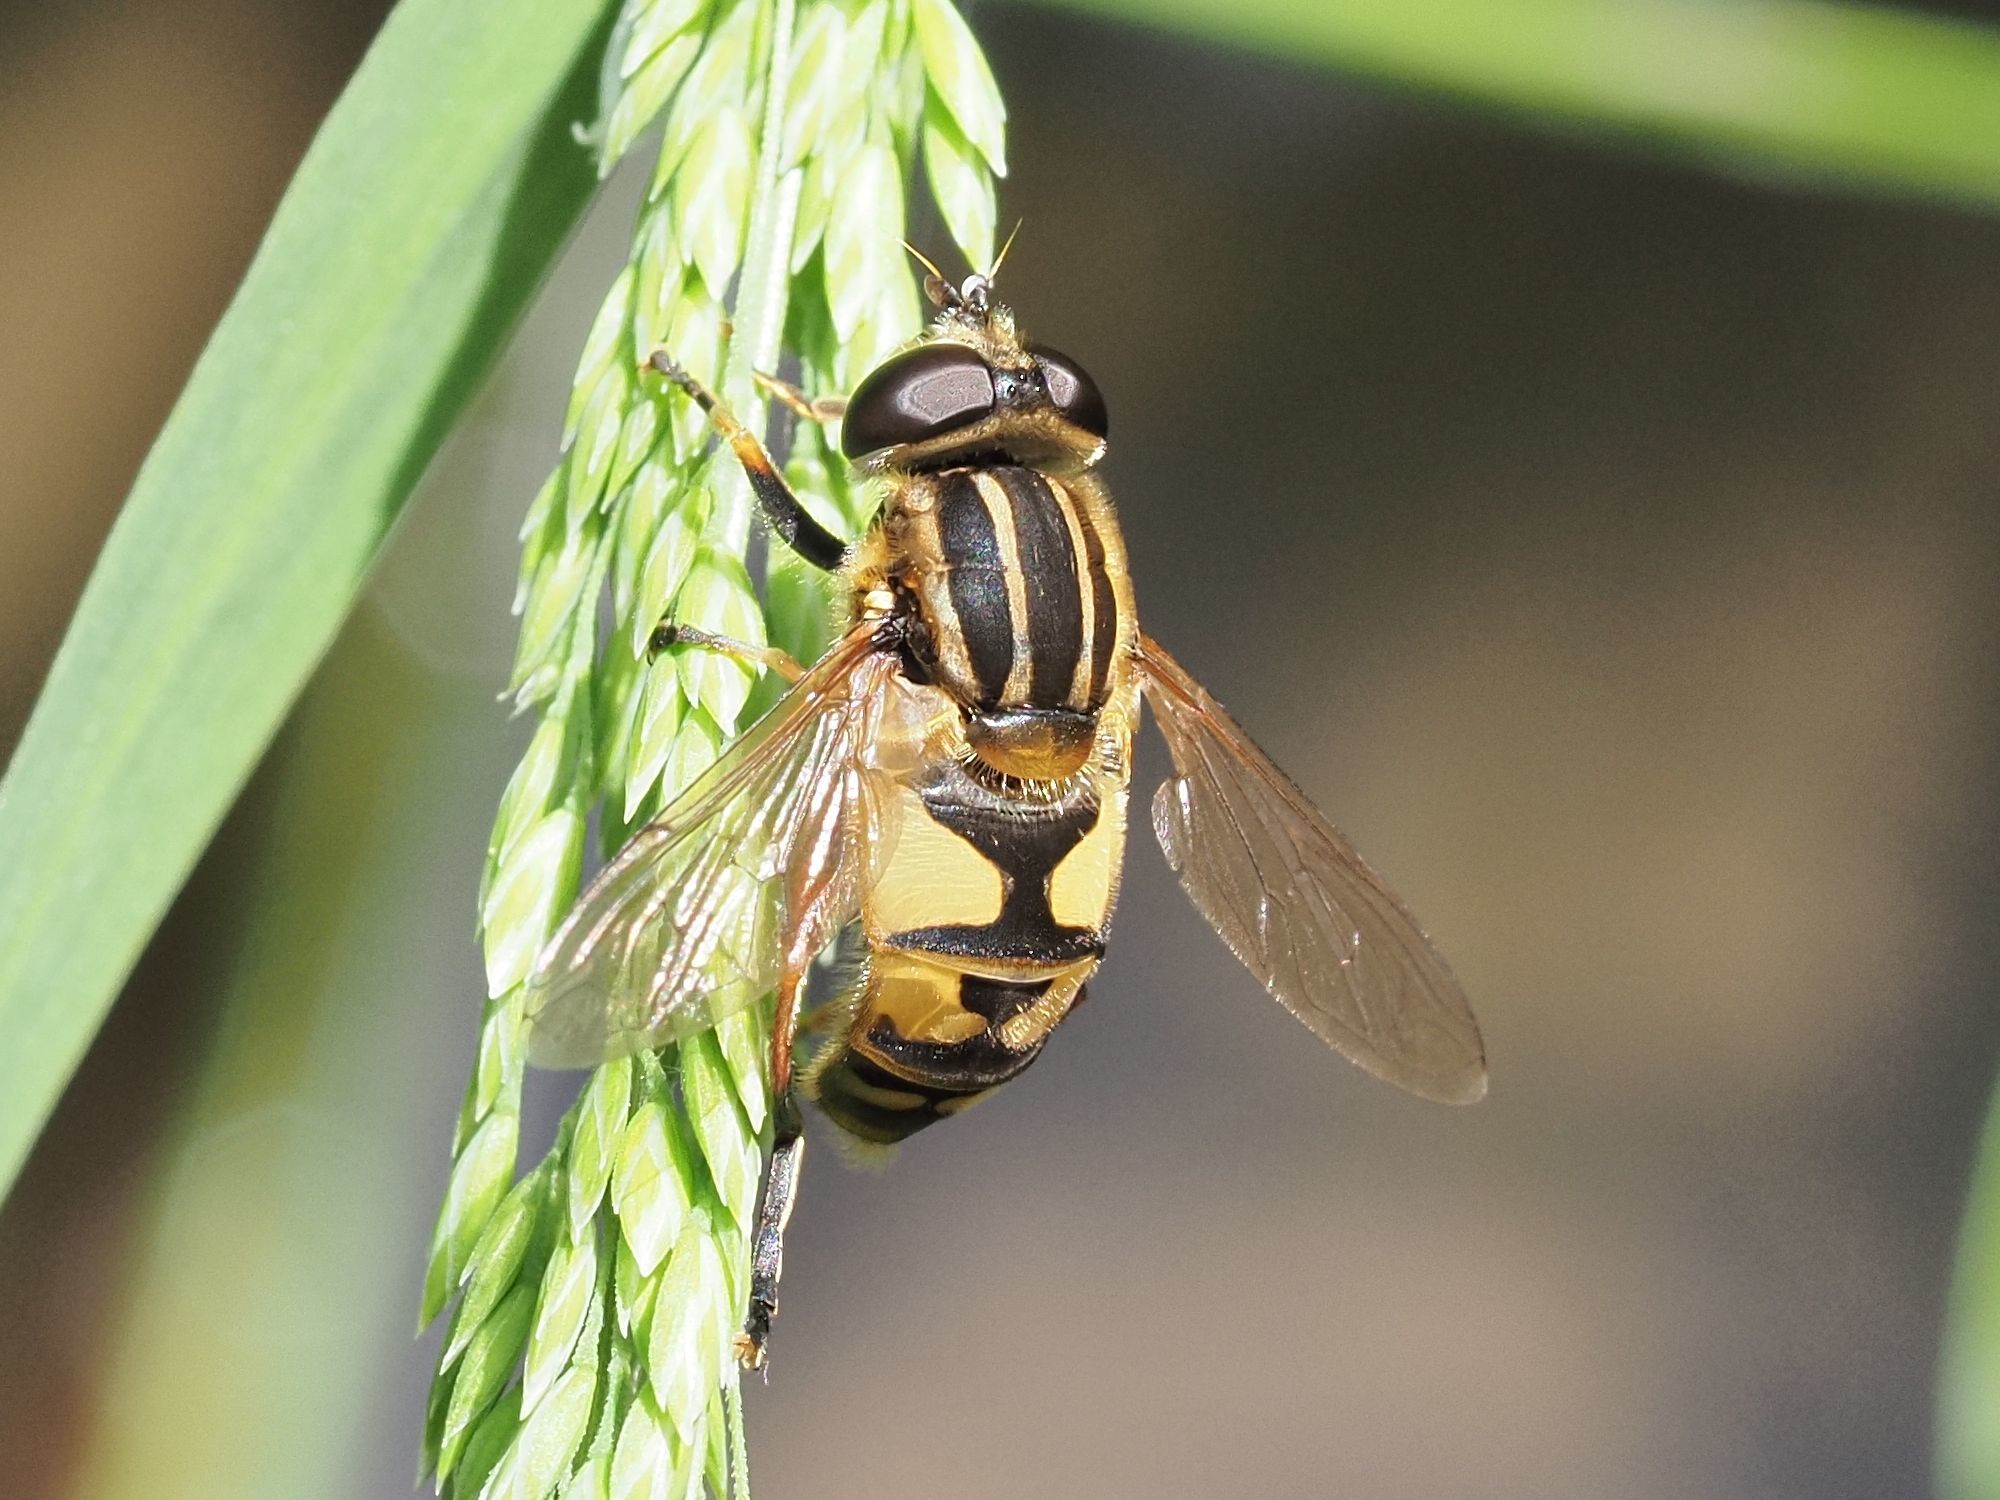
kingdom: Animalia
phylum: Arthropoda
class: Insecta
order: Diptera
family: Syrphidae
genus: Helophilus
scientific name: Helophilus pendulus
